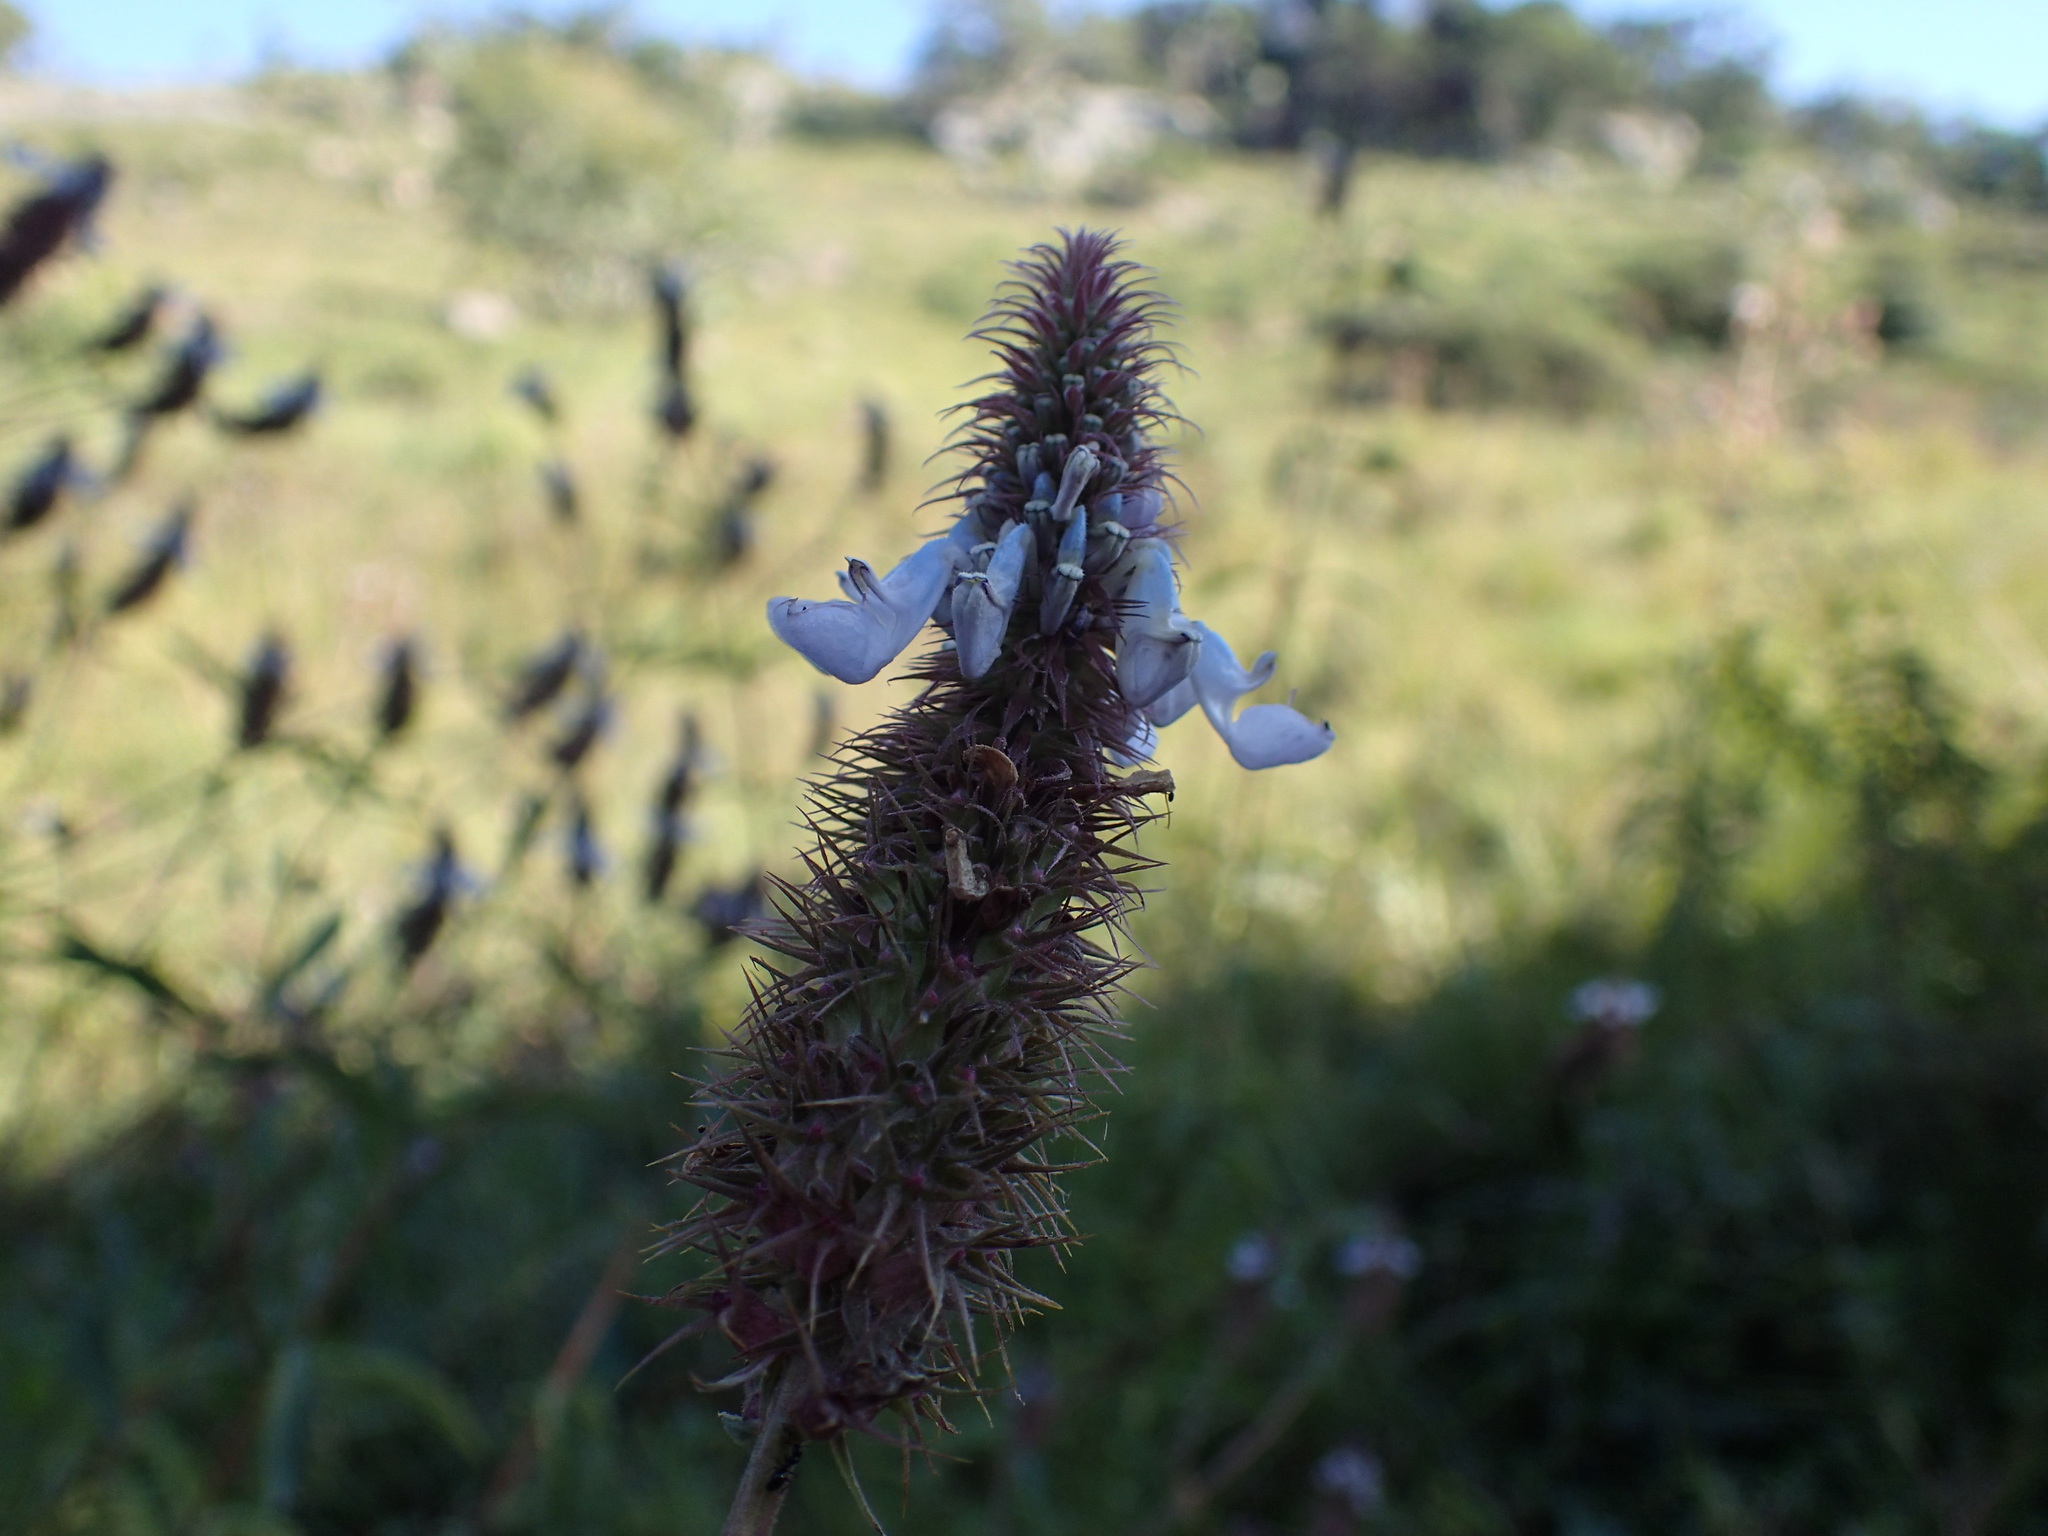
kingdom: Plantae
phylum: Tracheophyta
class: Magnoliopsida
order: Lamiales
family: Lamiaceae
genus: Coleus
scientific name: Coleus kirkii
